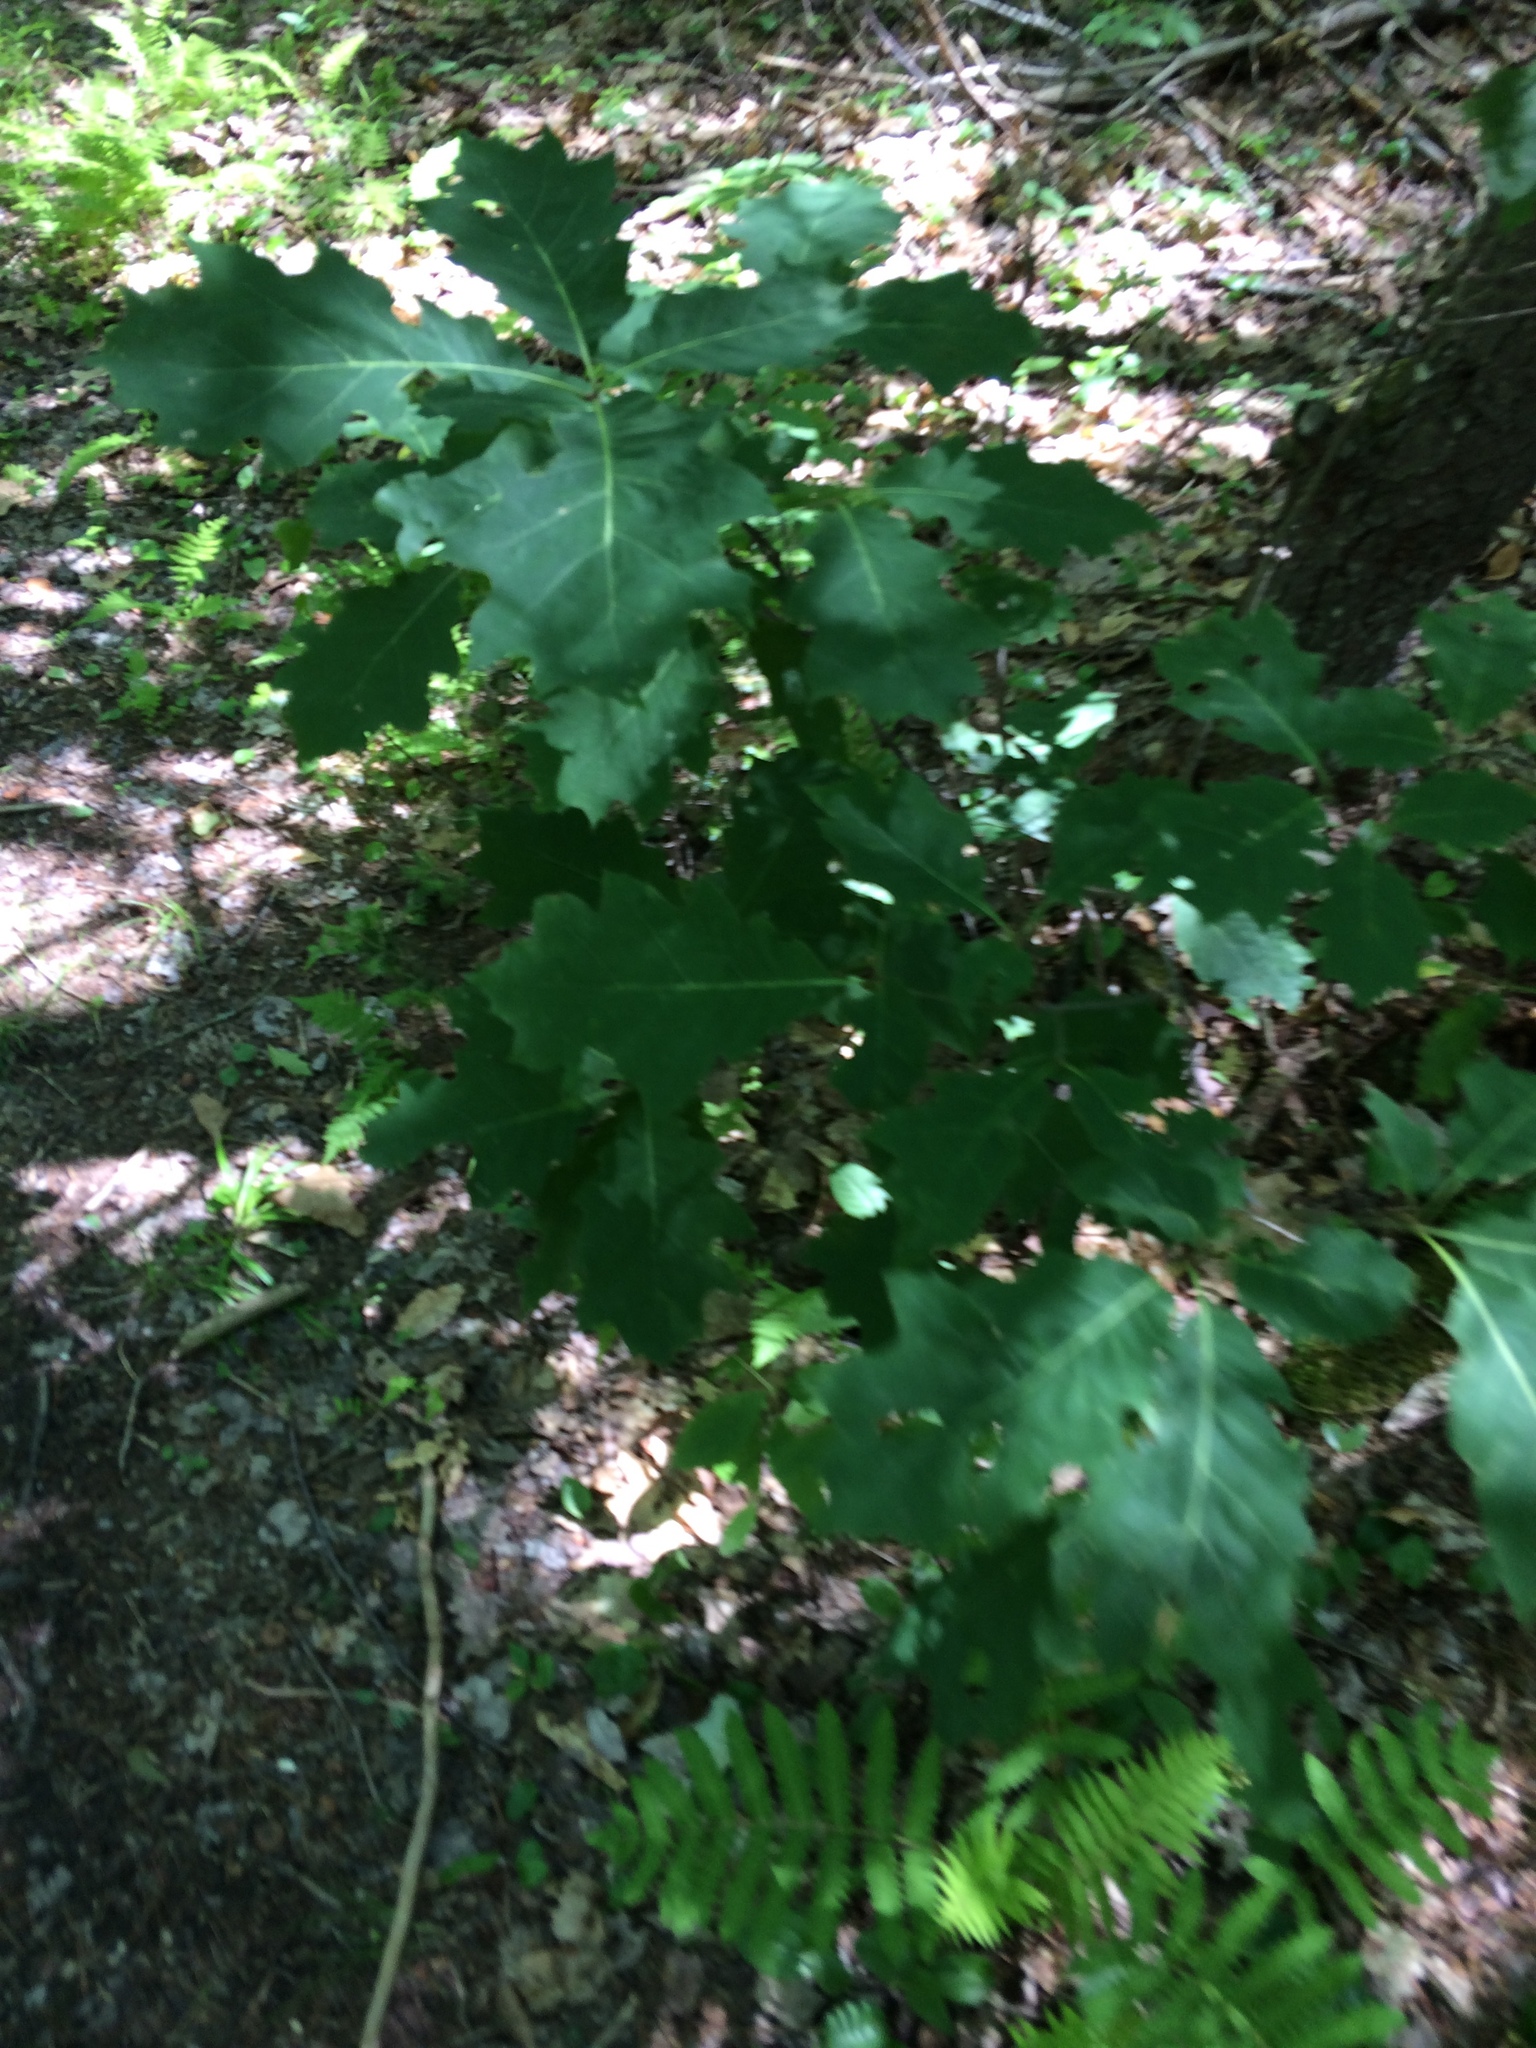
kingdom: Plantae
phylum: Tracheophyta
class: Magnoliopsida
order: Fagales
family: Fagaceae
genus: Quercus
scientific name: Quercus rubra
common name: Red oak
